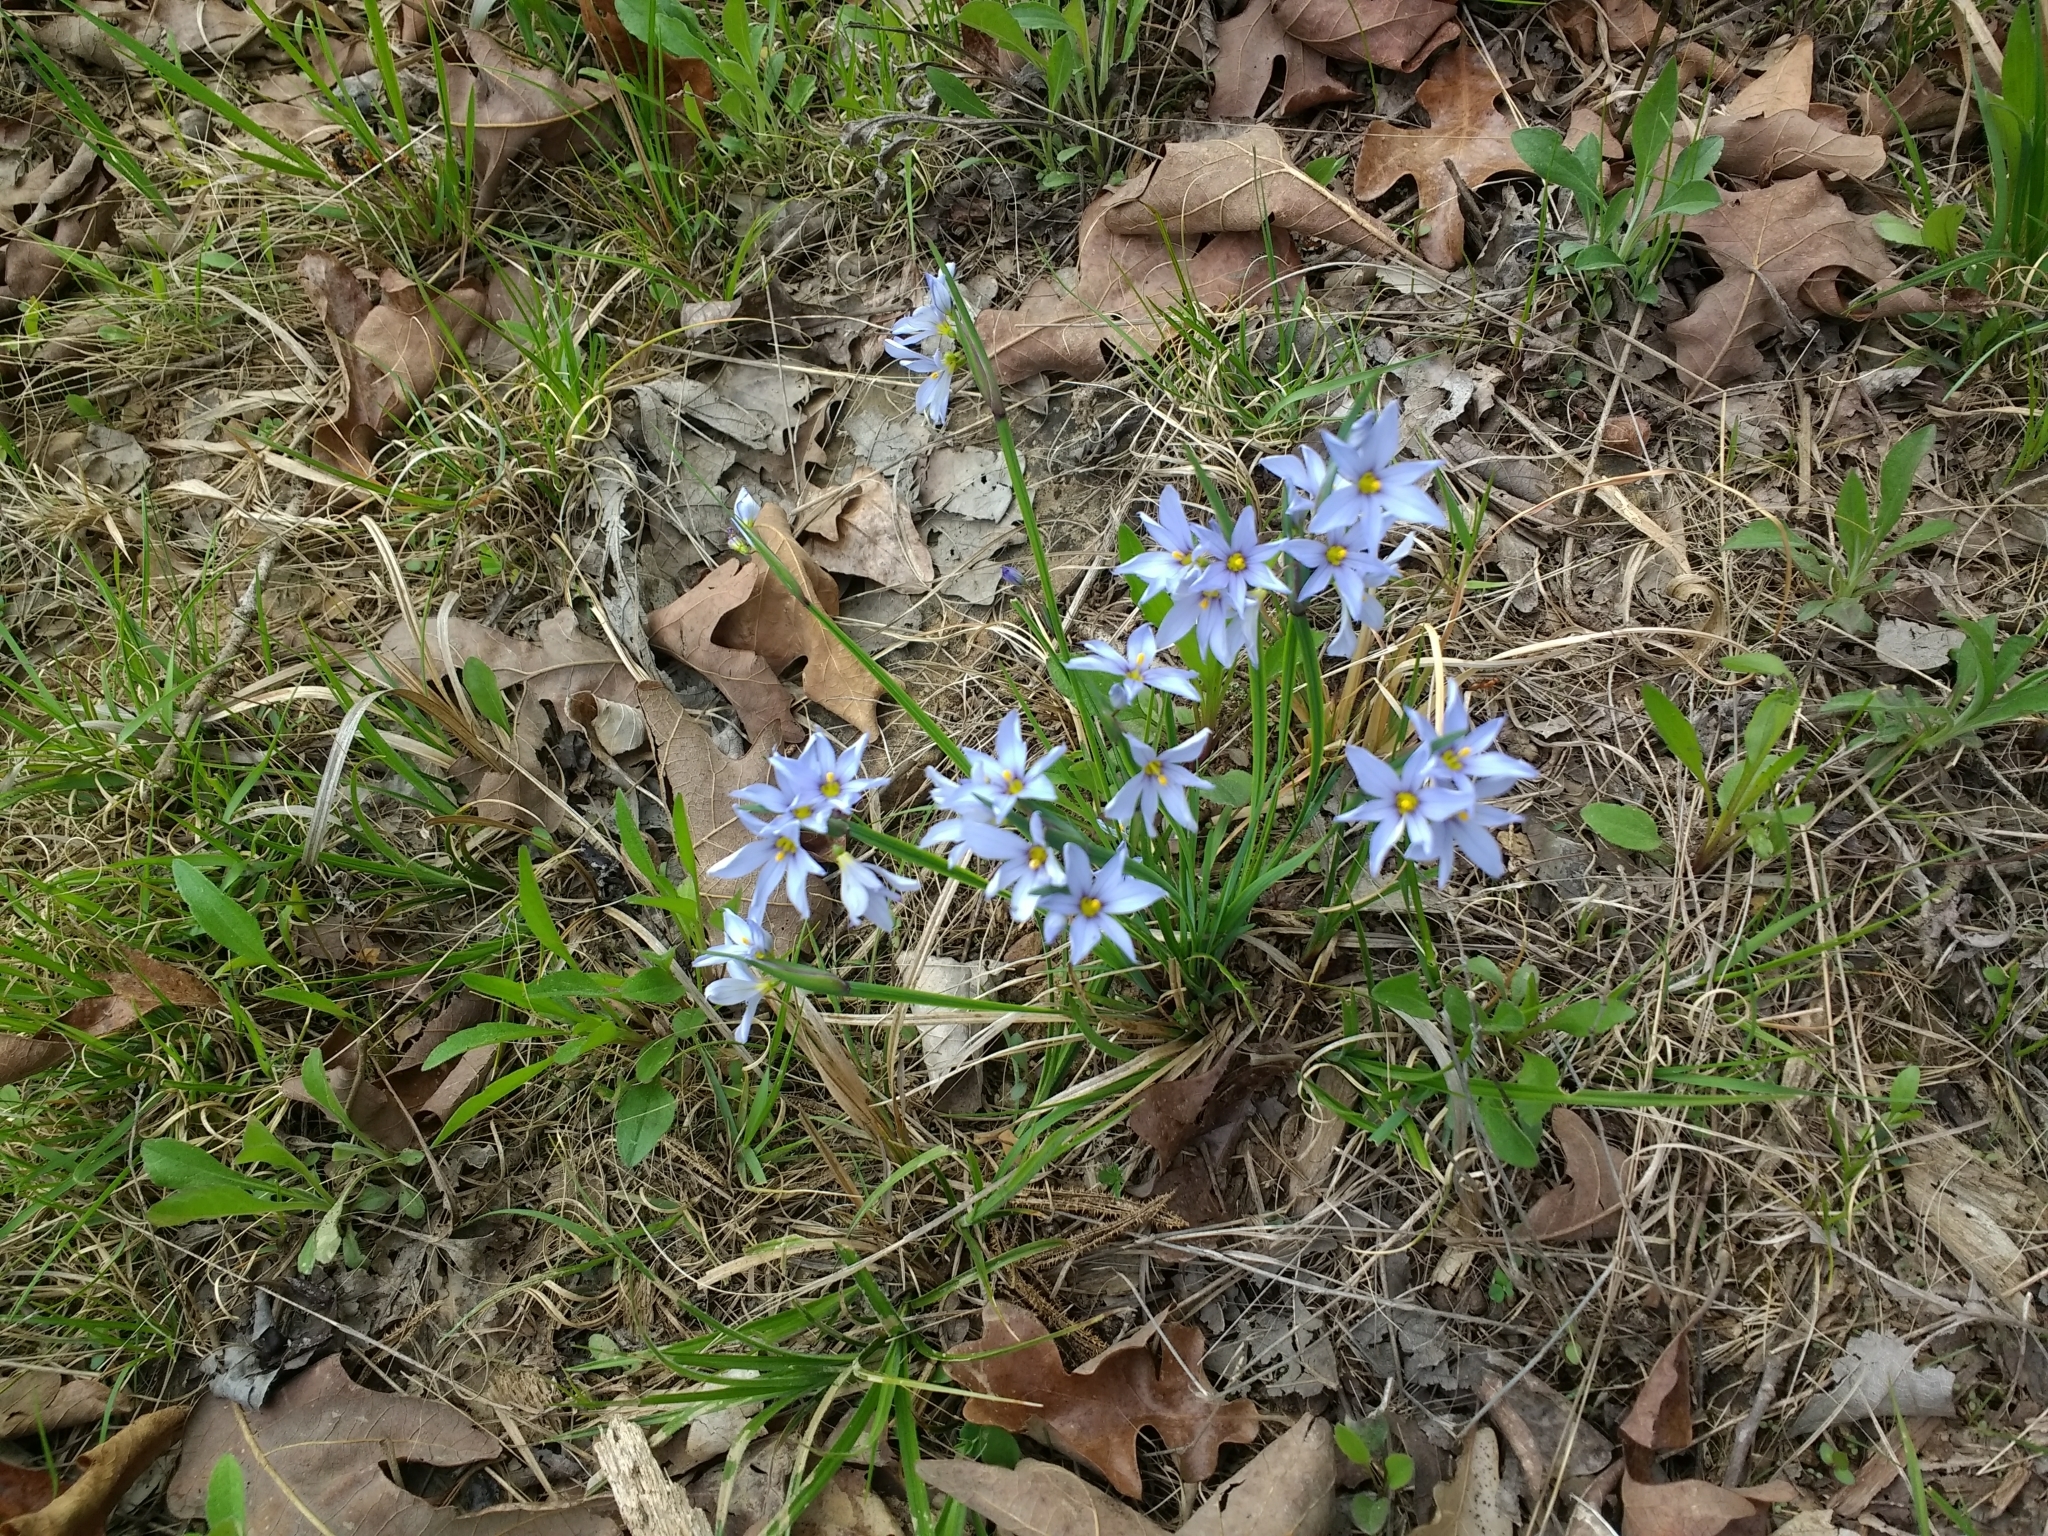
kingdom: Plantae
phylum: Tracheophyta
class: Liliopsida
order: Asparagales
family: Iridaceae
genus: Sisyrinchium
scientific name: Sisyrinchium campestre
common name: Prairie blue-eyed-grass
